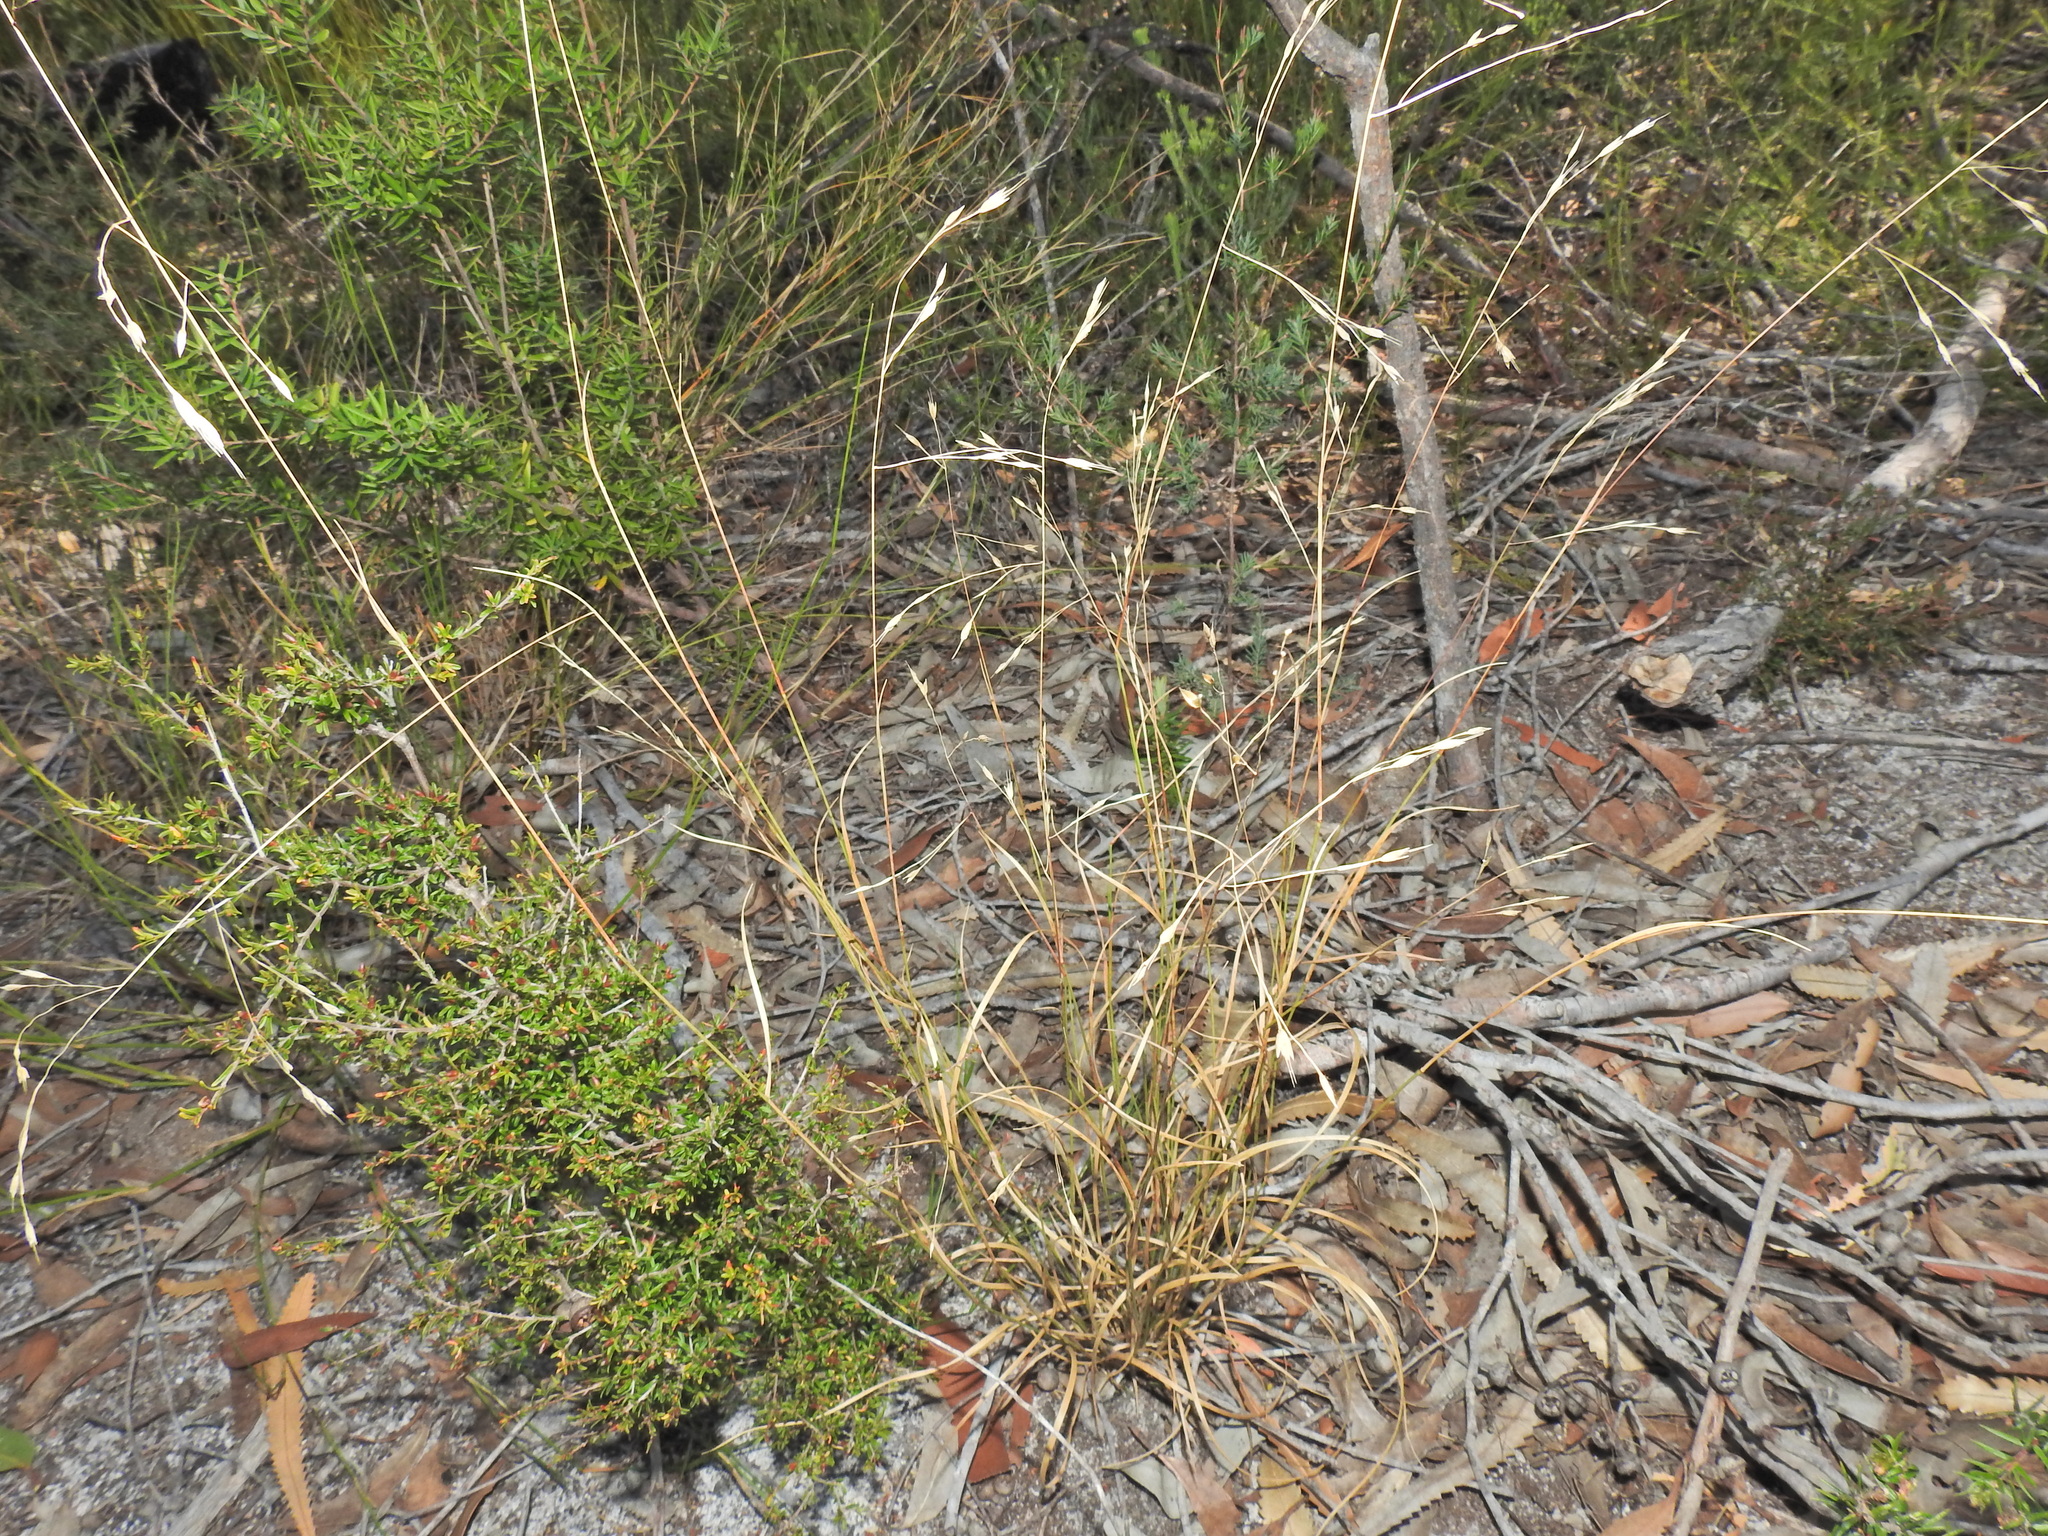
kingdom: Plantae
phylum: Tracheophyta
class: Liliopsida
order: Poales
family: Poaceae
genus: Eriachne
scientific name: Eriachne pallescens
